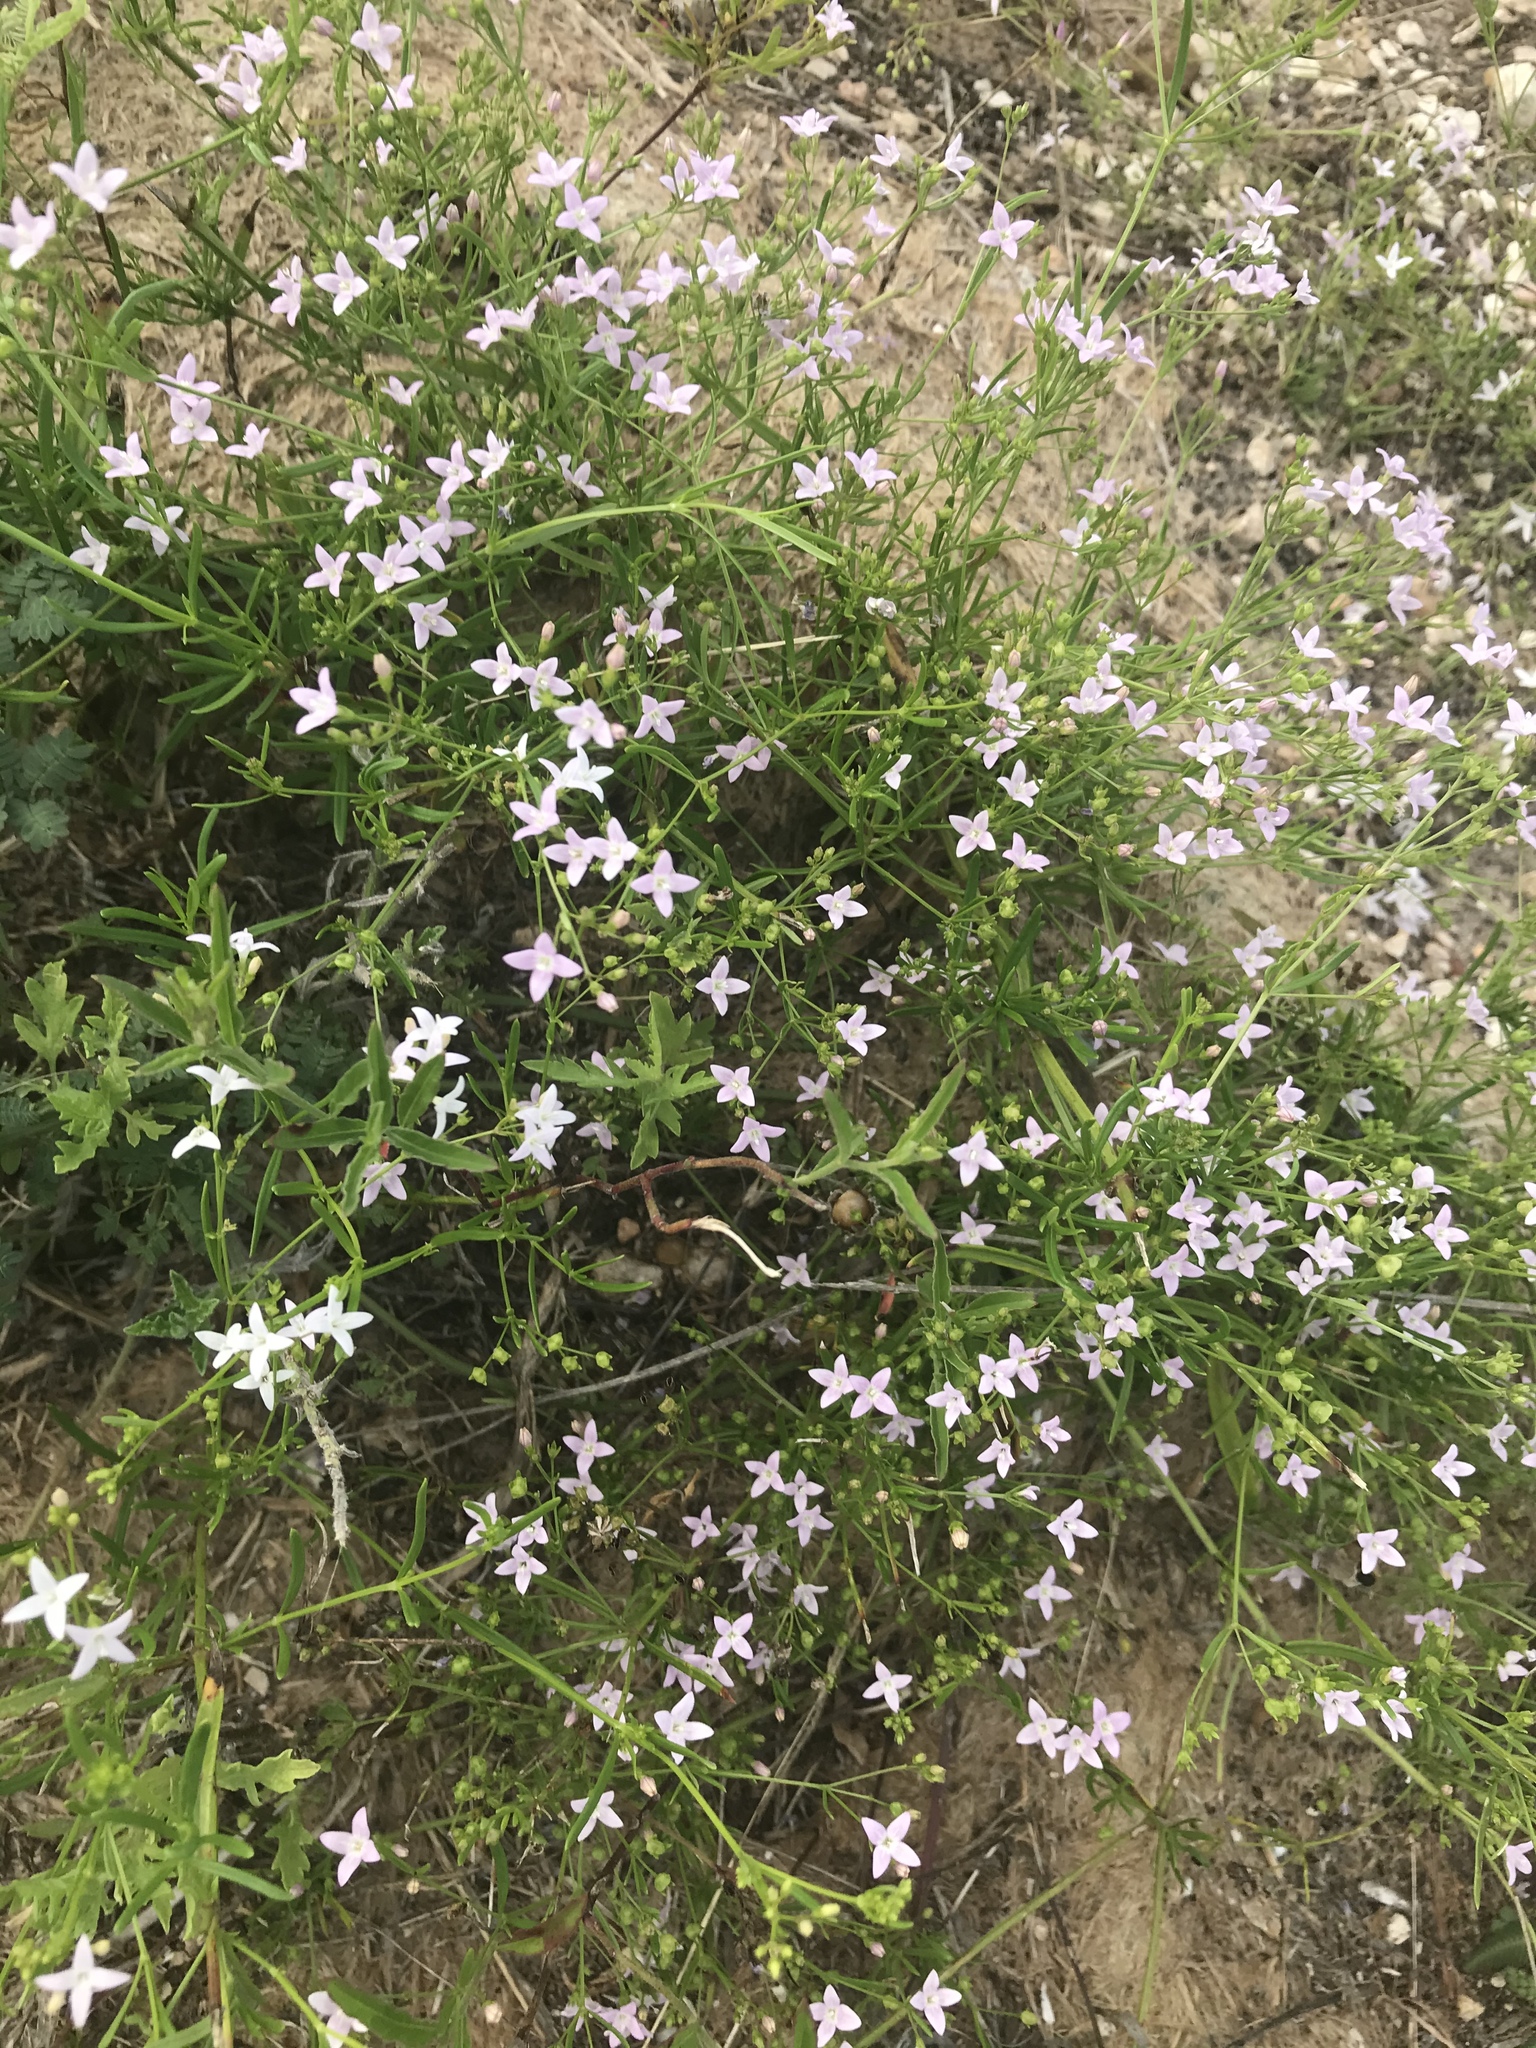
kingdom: Plantae
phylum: Tracheophyta
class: Magnoliopsida
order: Gentianales
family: Rubiaceae
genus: Stenaria
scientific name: Stenaria nigricans
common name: Diamondflowers
